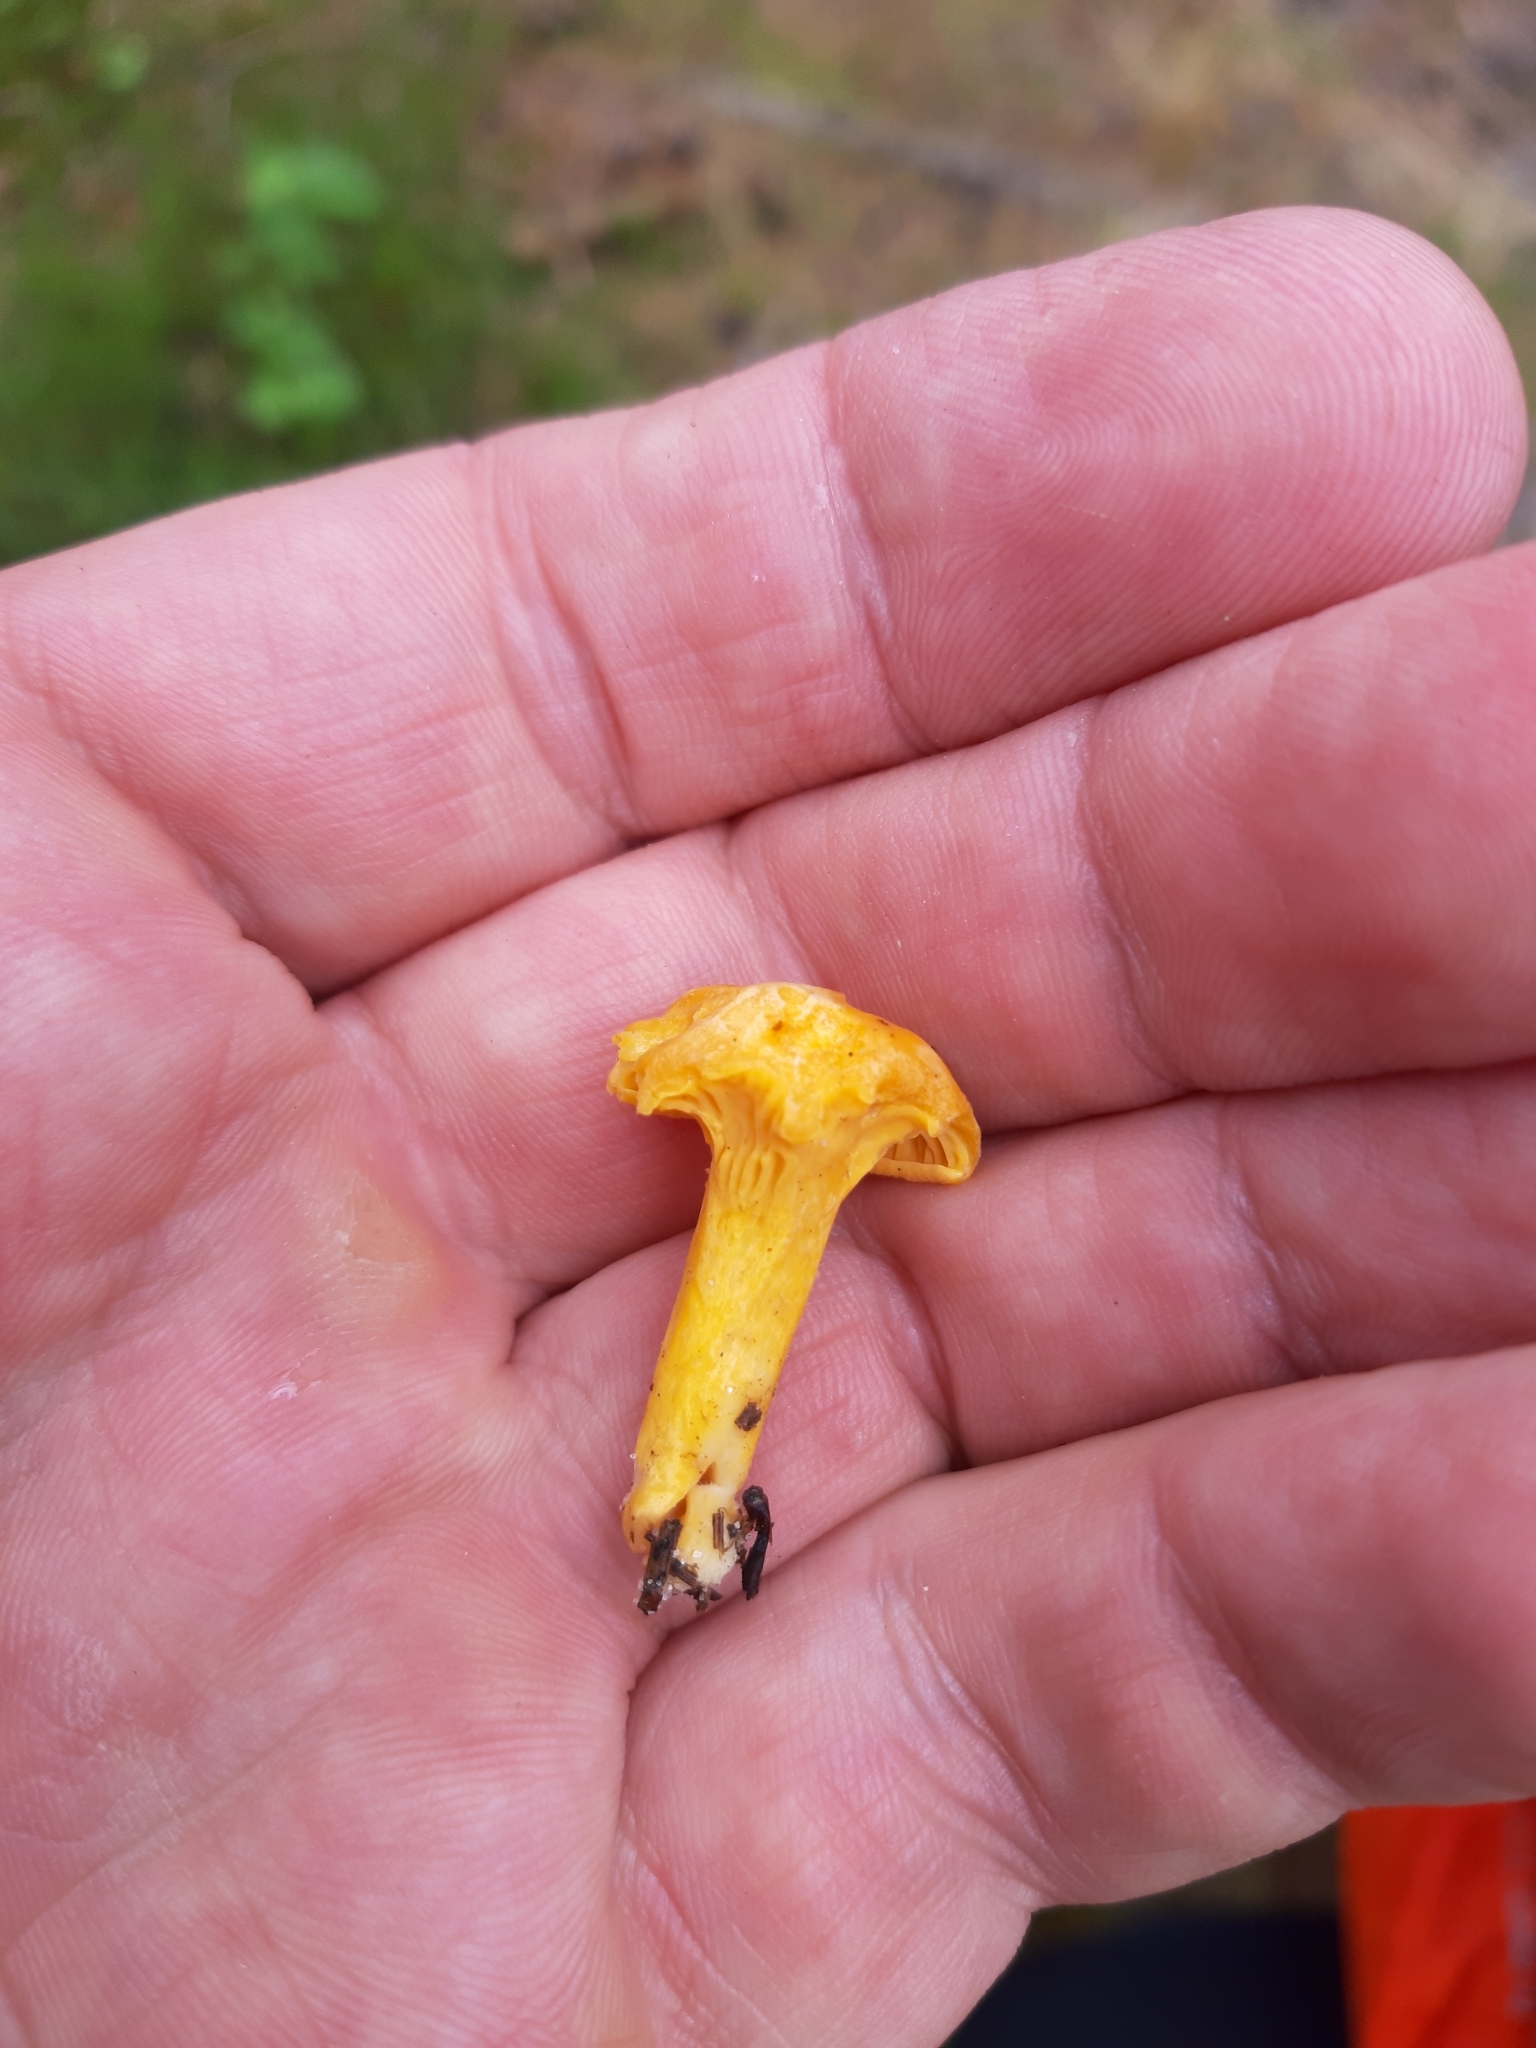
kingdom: Fungi
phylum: Basidiomycota
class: Agaricomycetes
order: Cantharellales
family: Hydnaceae
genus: Cantharellus
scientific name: Cantharellus cibarius
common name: Chanterelle
